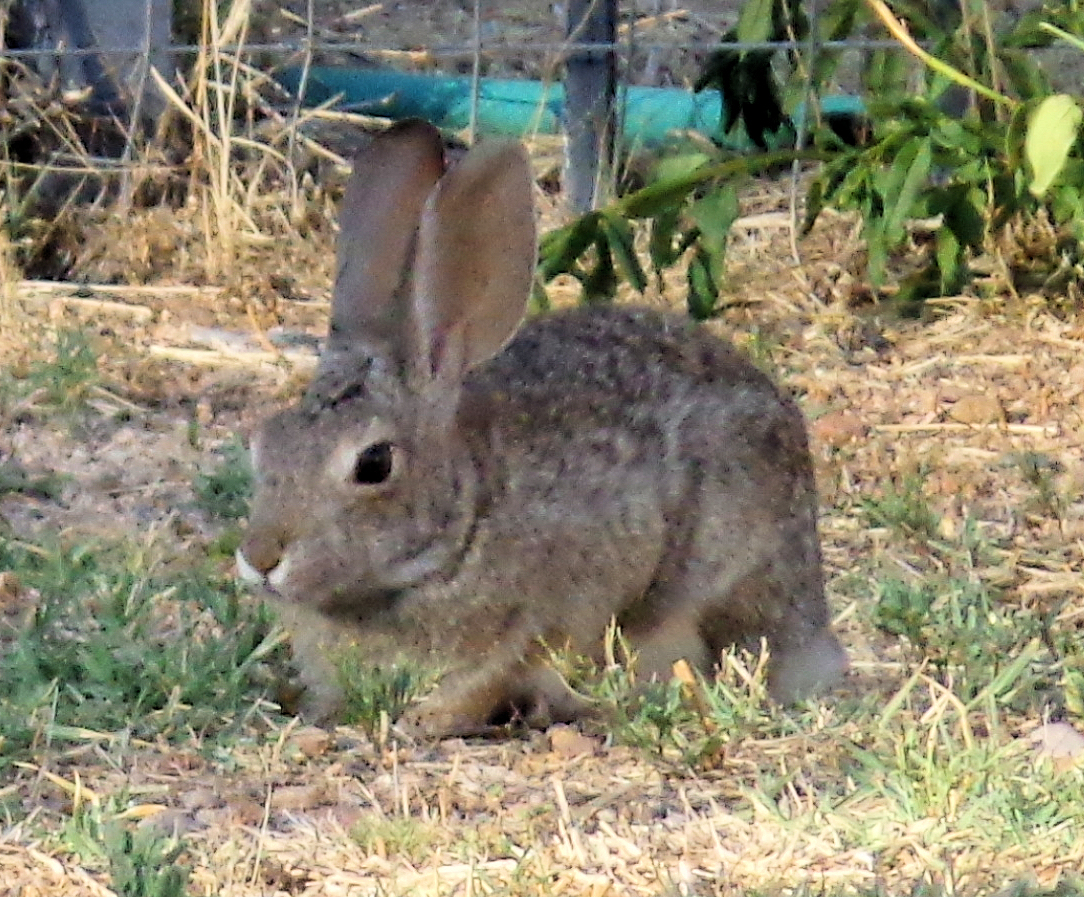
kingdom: Animalia
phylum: Chordata
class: Mammalia
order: Lagomorpha
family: Leporidae
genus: Sylvilagus
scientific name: Sylvilagus audubonii
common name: Desert cottontail
